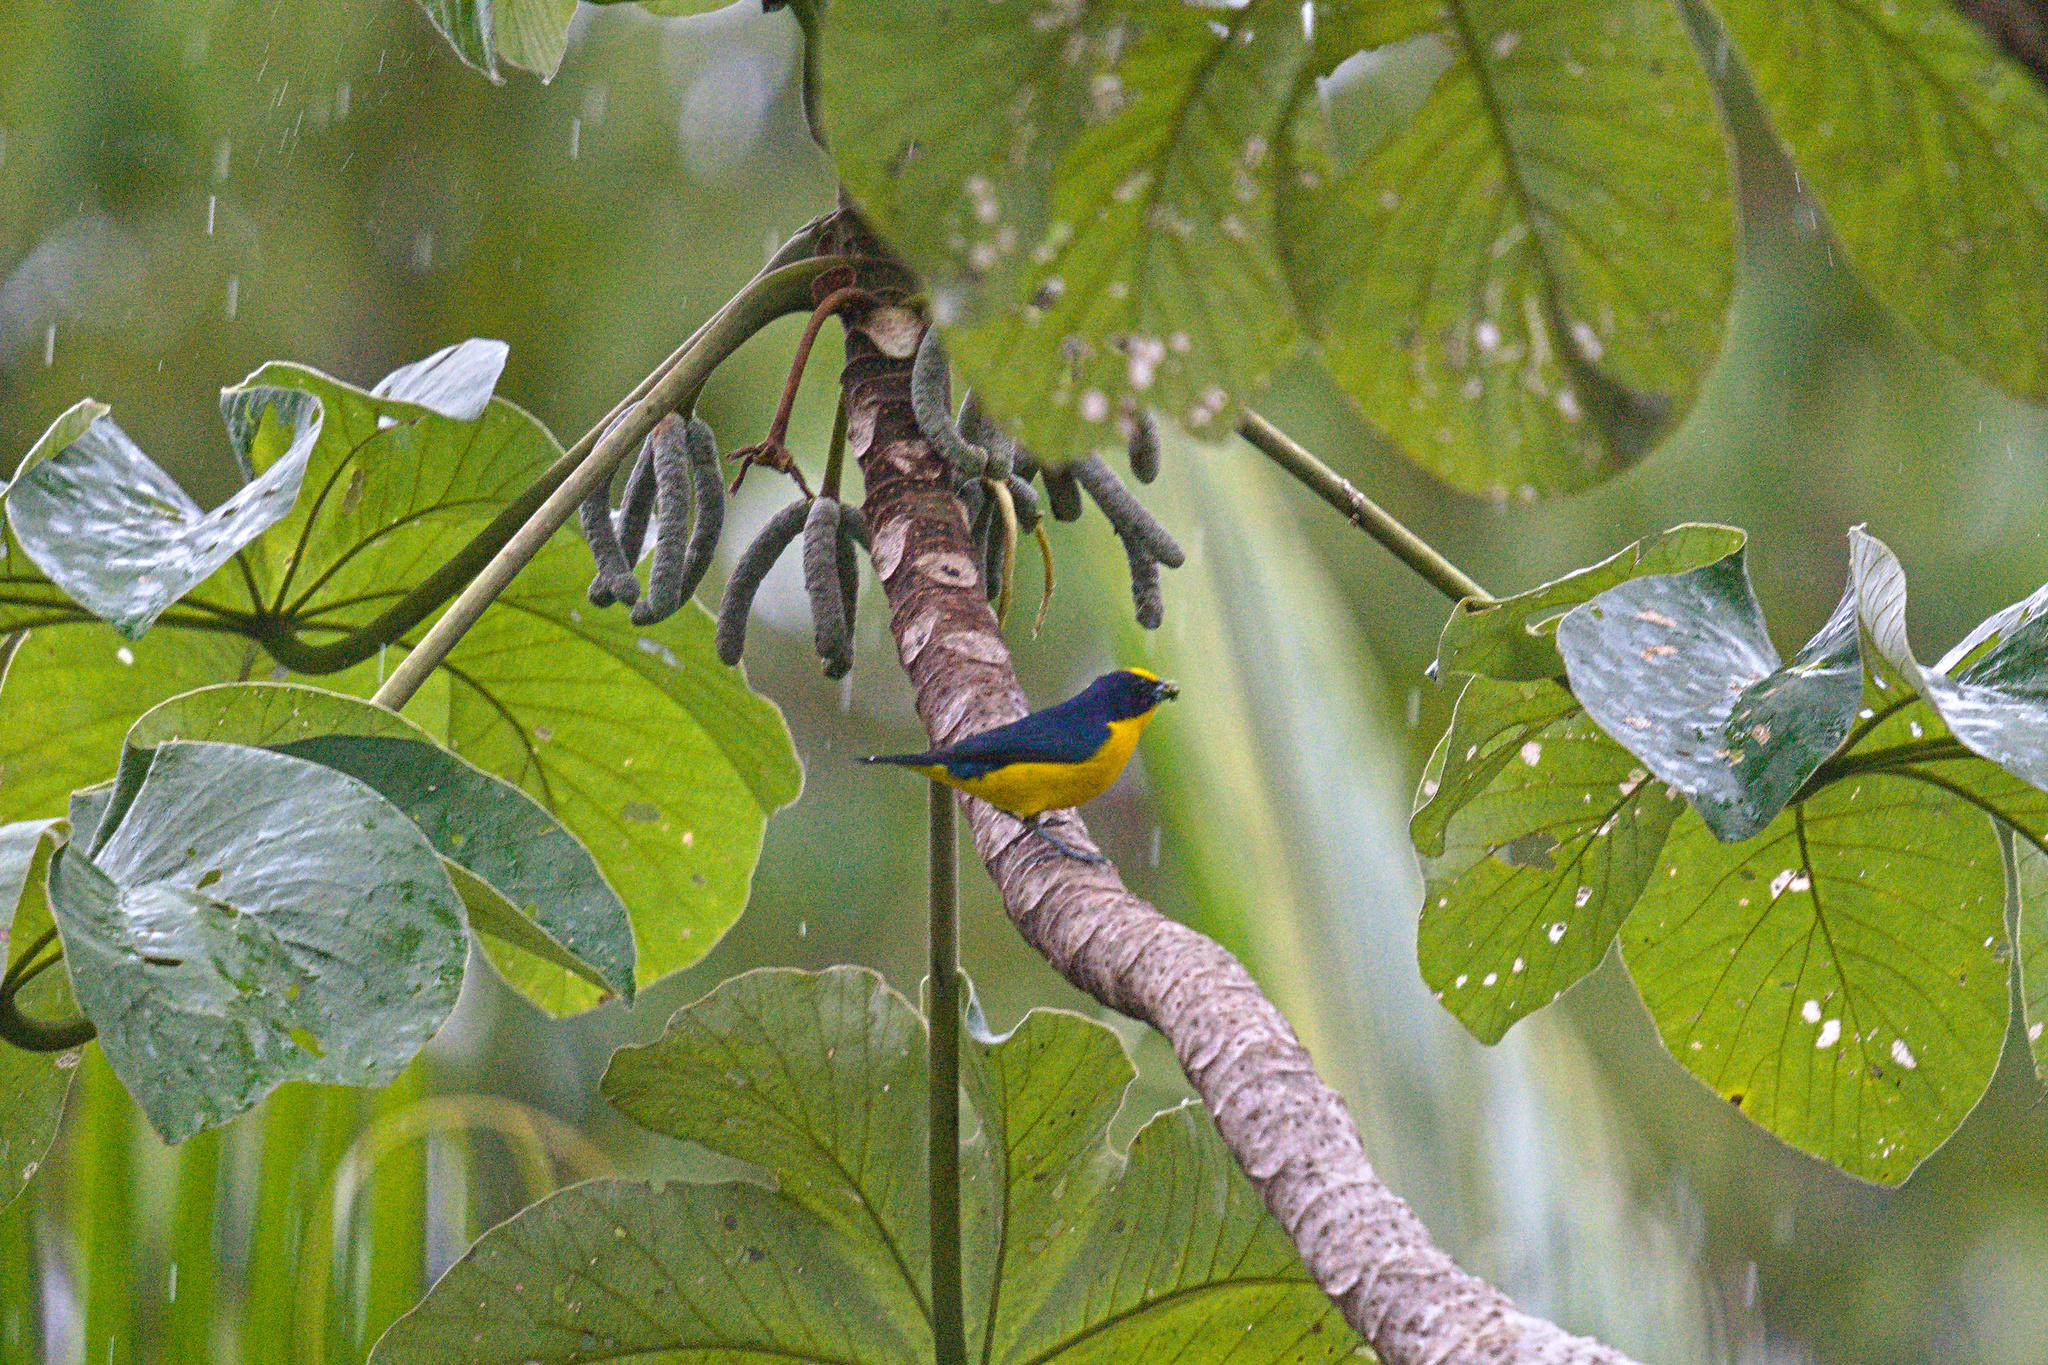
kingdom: Animalia
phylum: Chordata
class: Aves
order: Passeriformes
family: Fringillidae
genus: Euphonia
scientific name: Euphonia hirundinacea
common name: Yellow-throated euphonia
